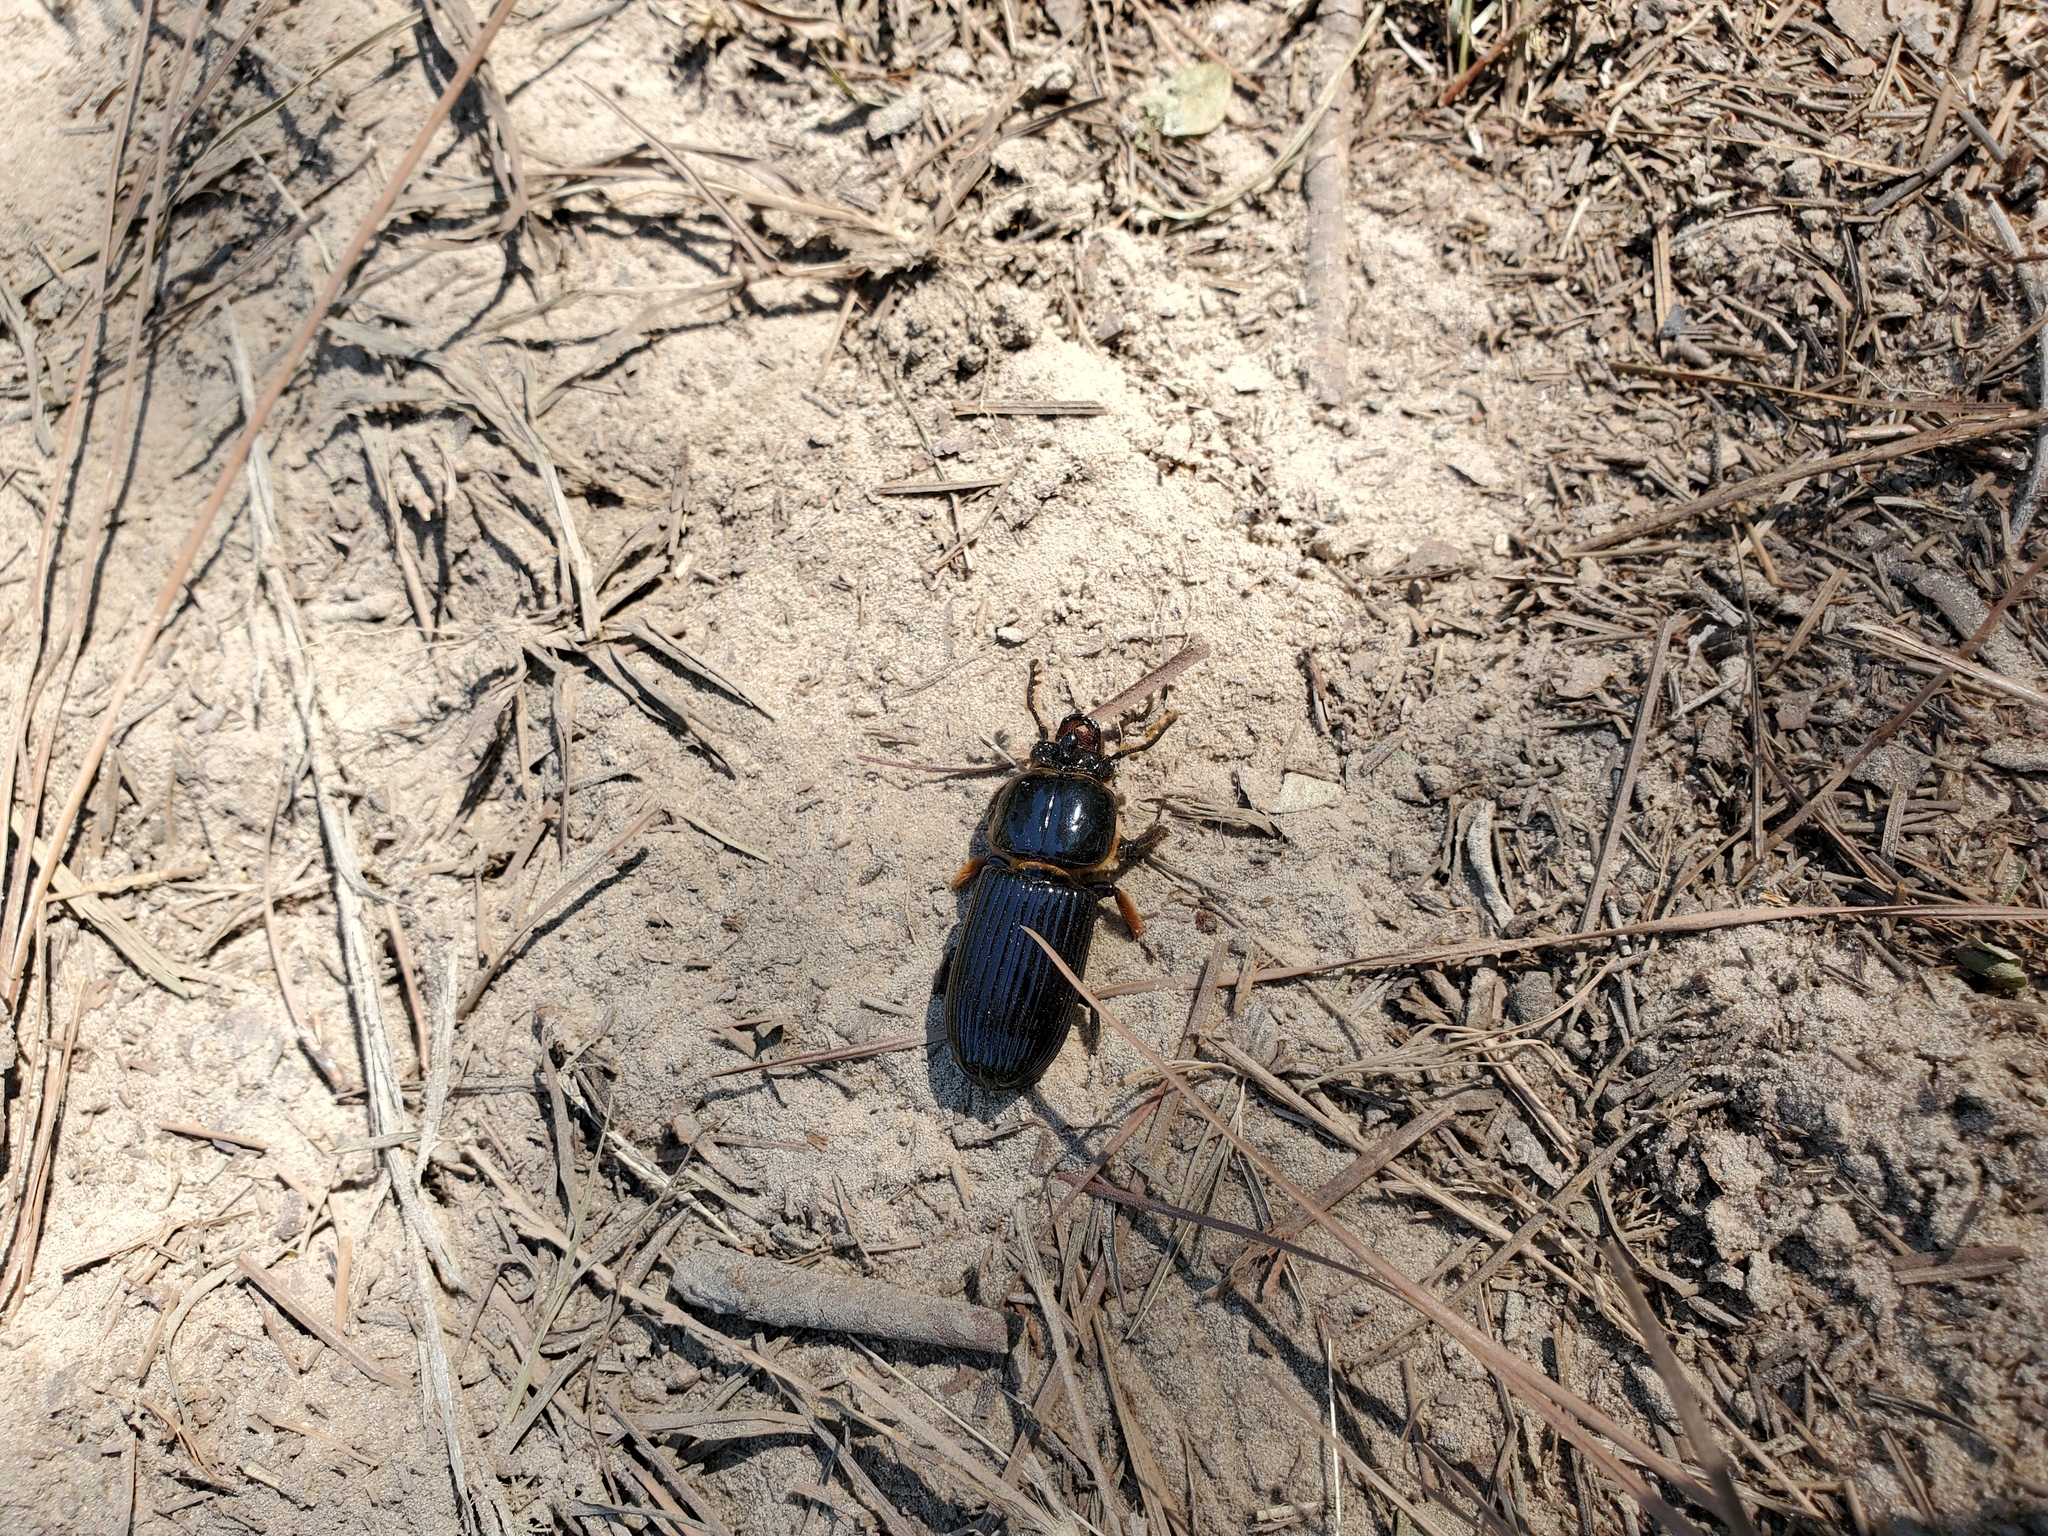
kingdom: Animalia
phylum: Arthropoda
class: Insecta
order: Coleoptera
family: Passalidae
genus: Odontotaenius
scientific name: Odontotaenius disjunctus
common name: Patent leather beetle
